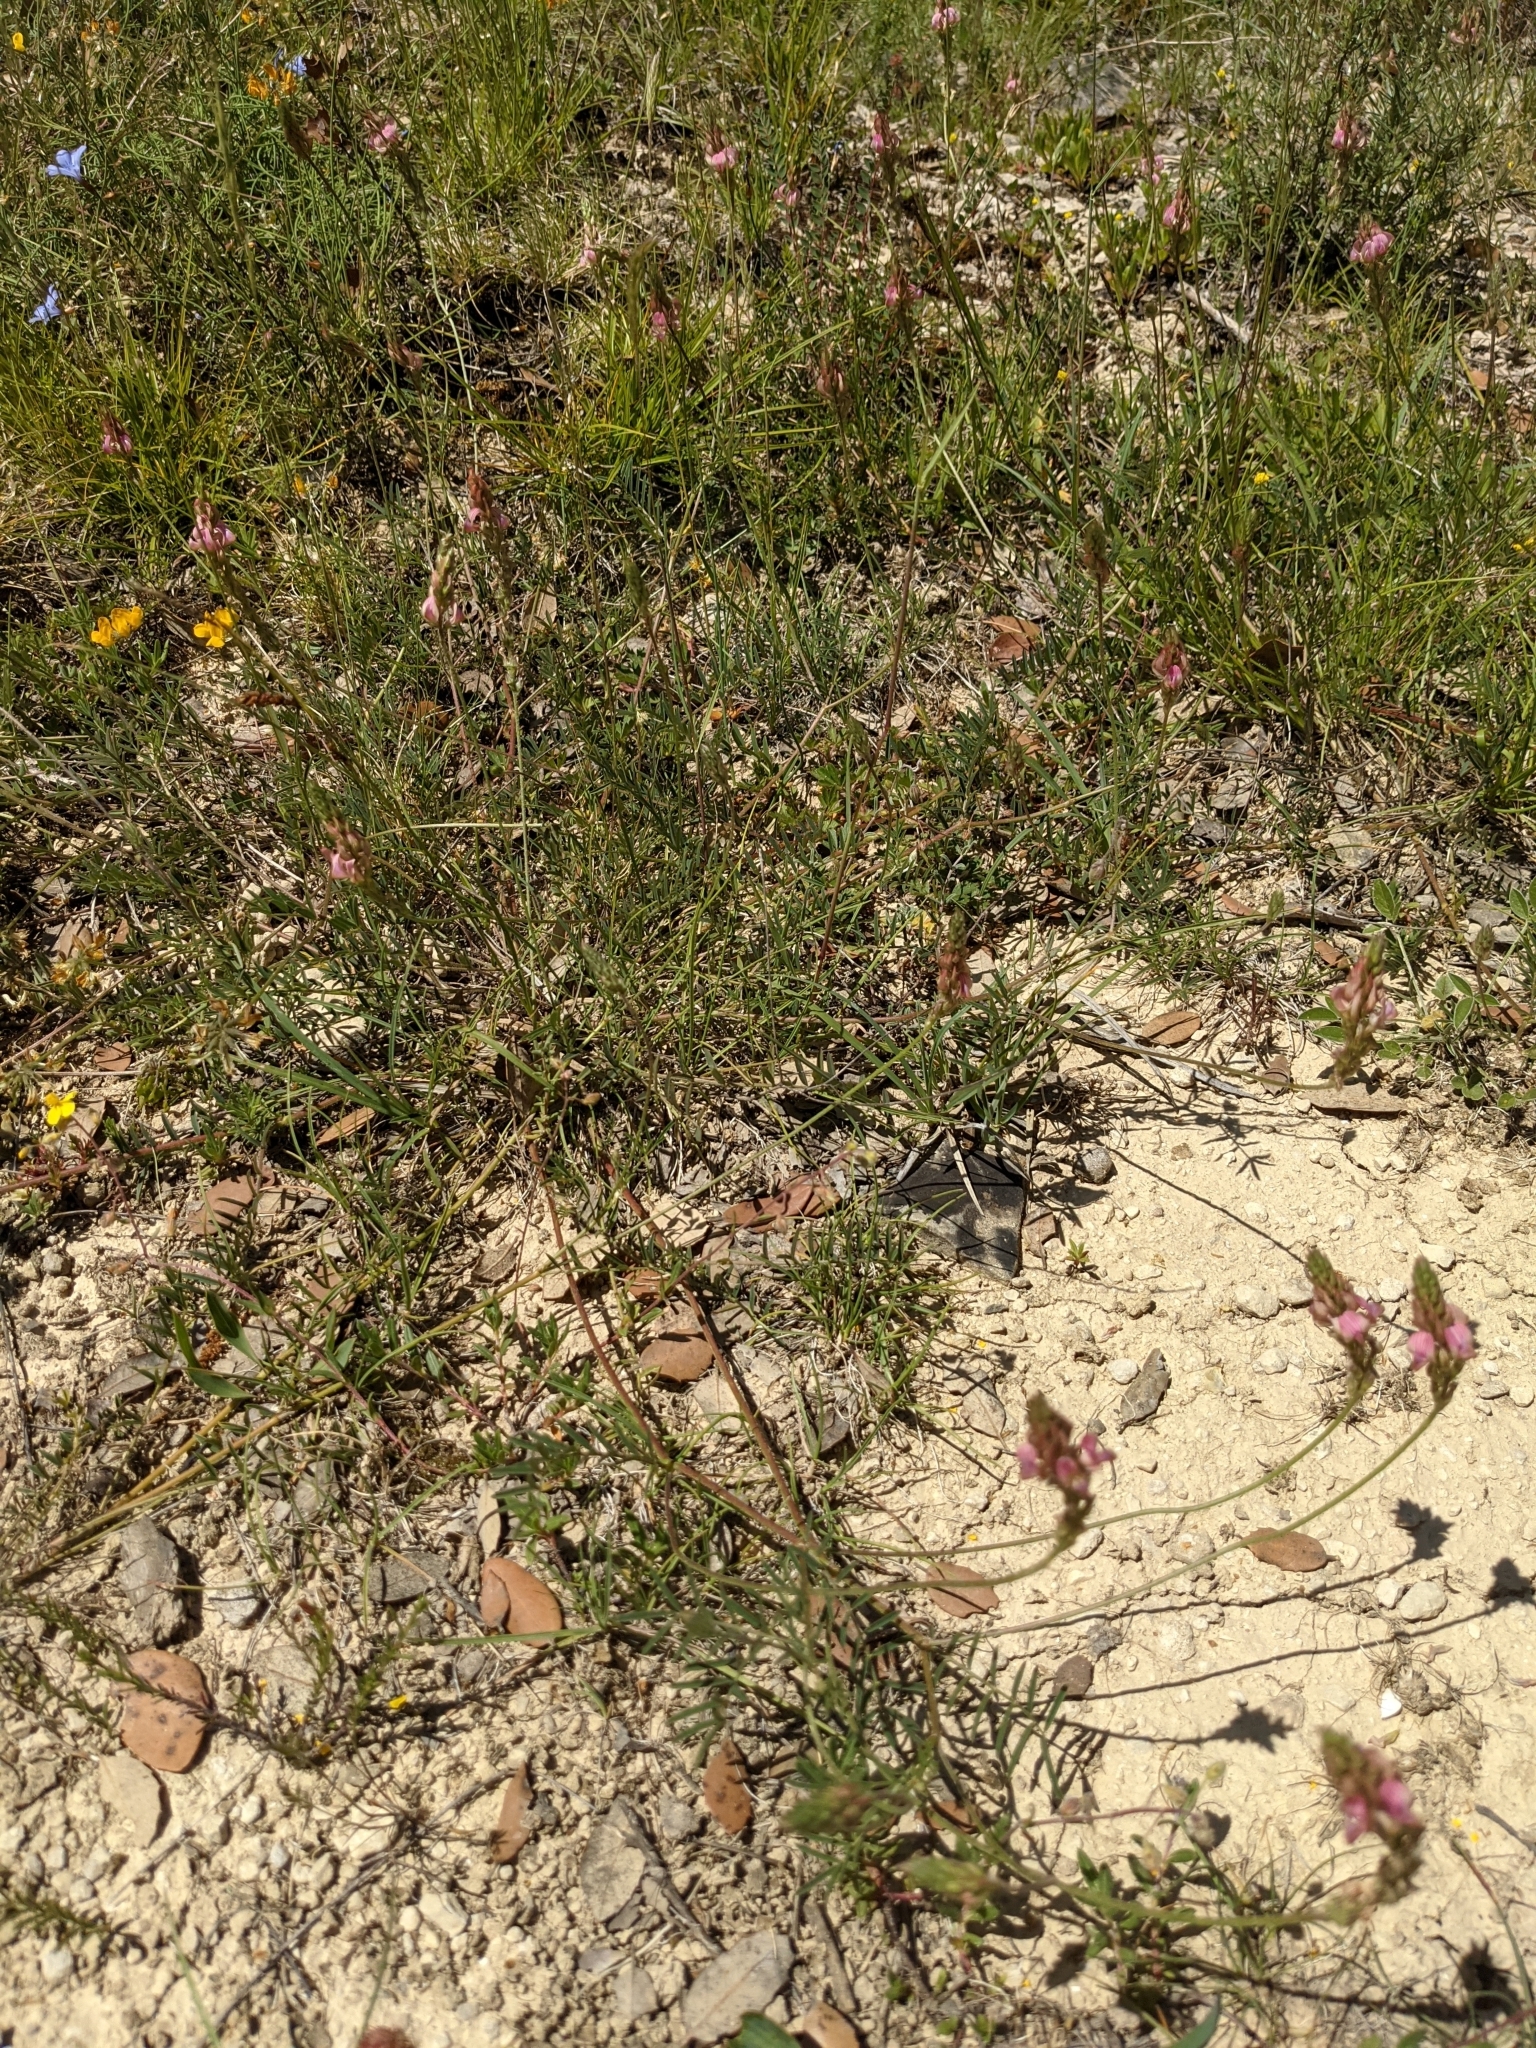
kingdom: Plantae
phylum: Tracheophyta
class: Magnoliopsida
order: Fabales
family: Fabaceae
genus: Onobrychis
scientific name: Onobrychis supina
